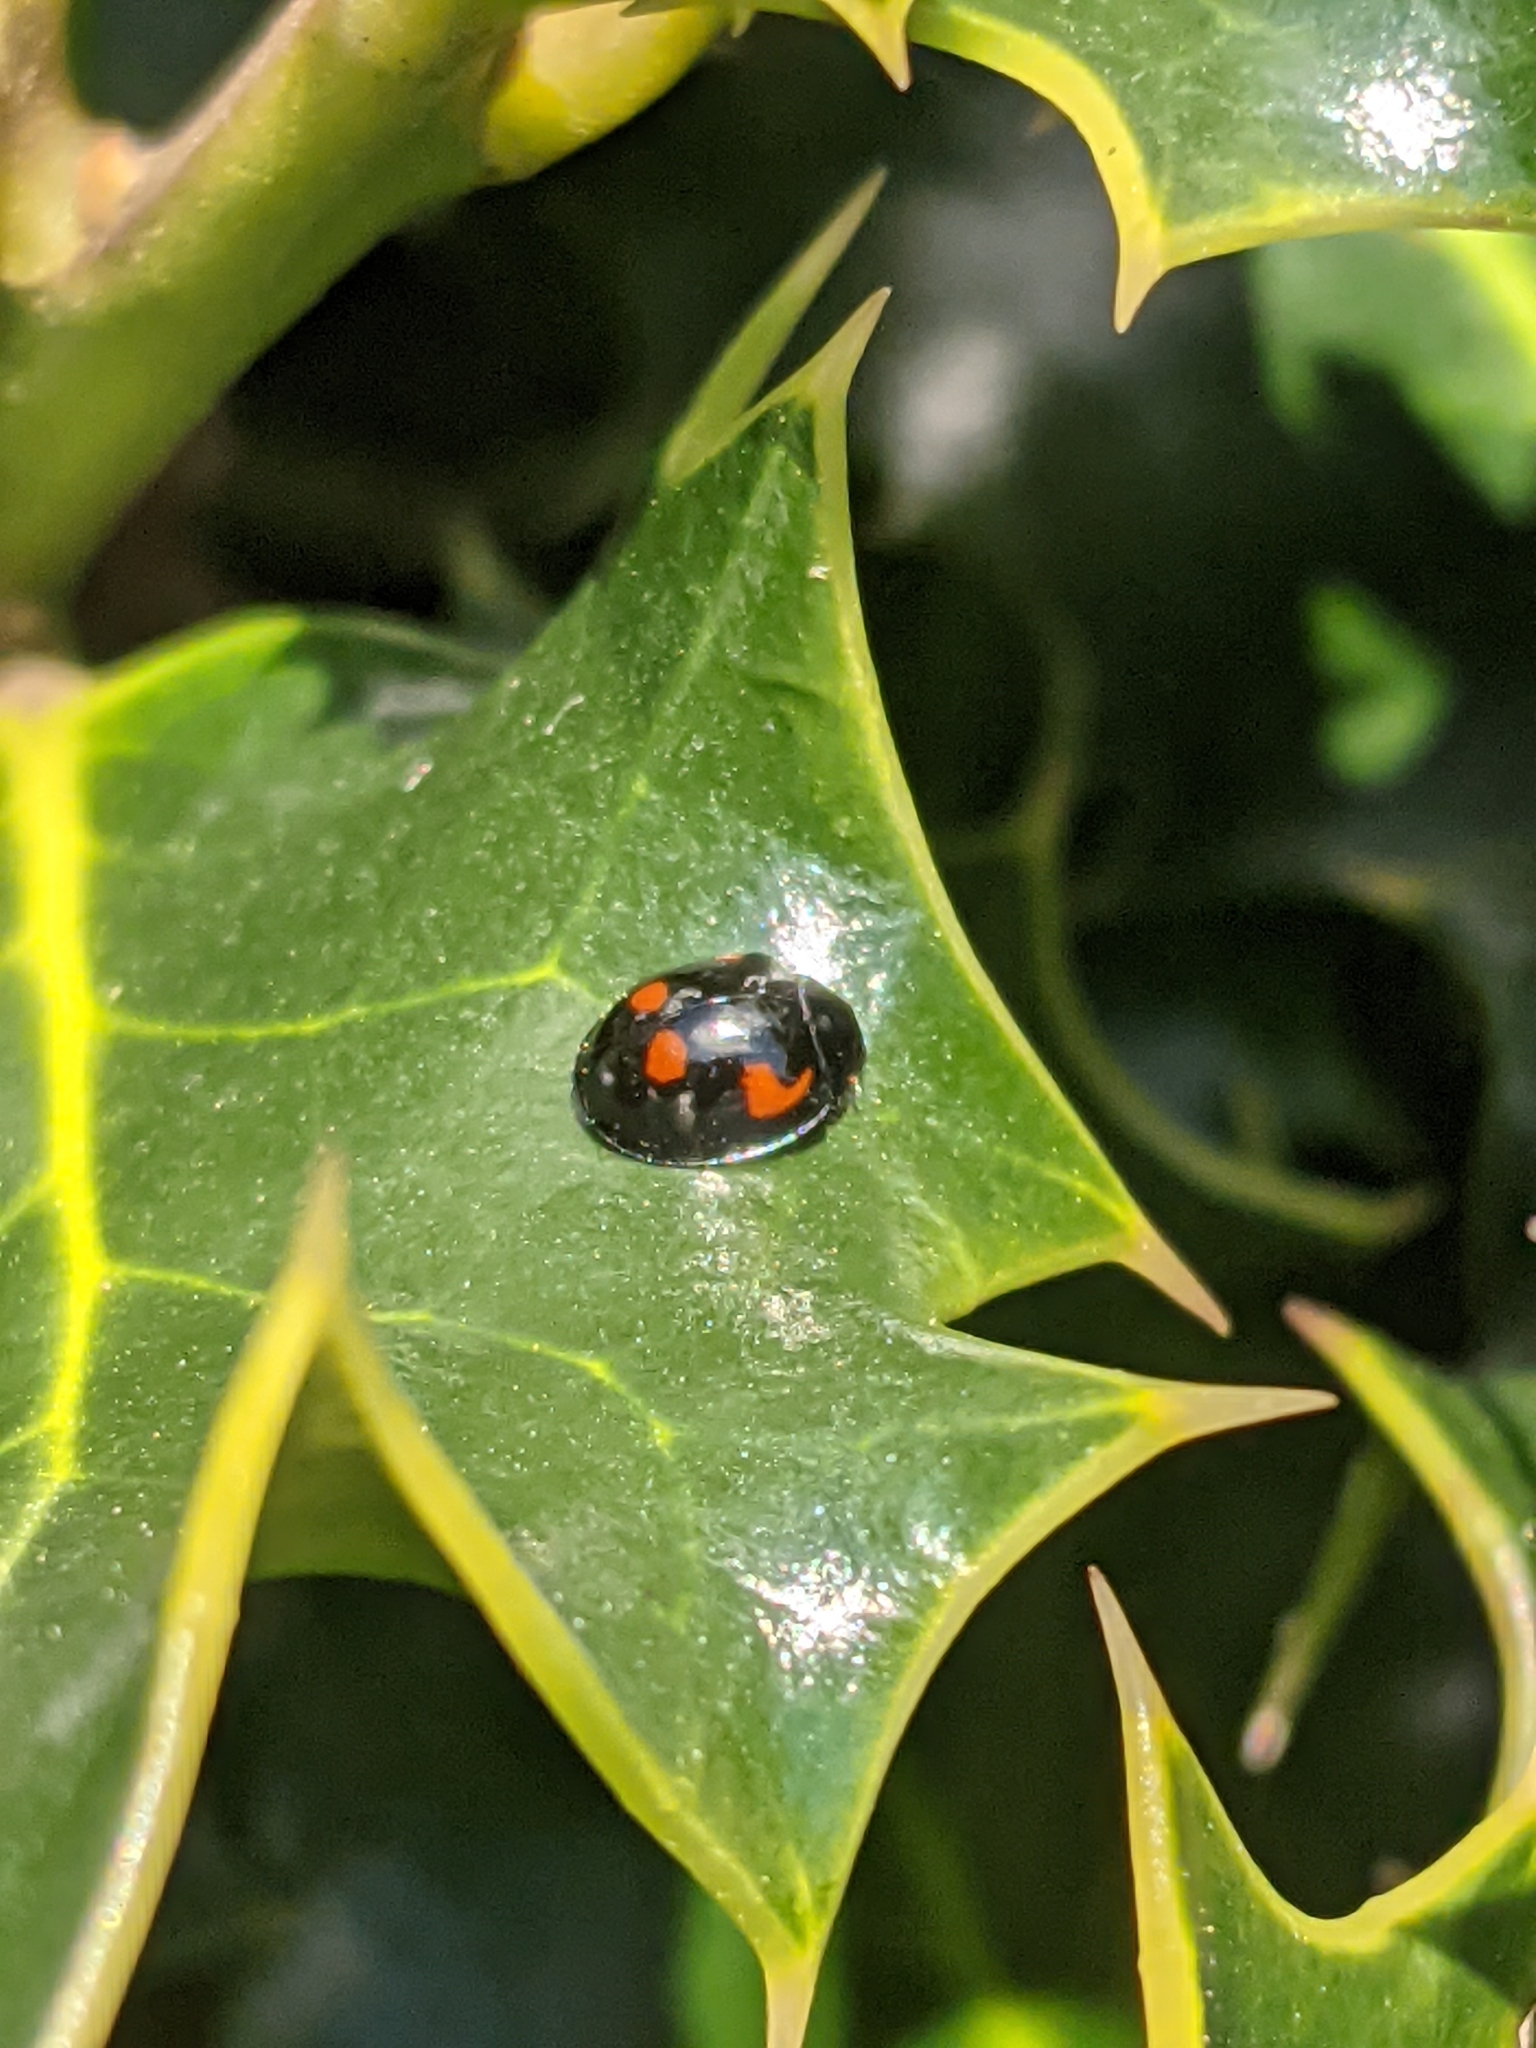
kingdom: Animalia
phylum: Arthropoda
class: Insecta
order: Coleoptera
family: Coccinellidae
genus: Brumus
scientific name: Brumus quadripustulatus
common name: Ladybird beetle
